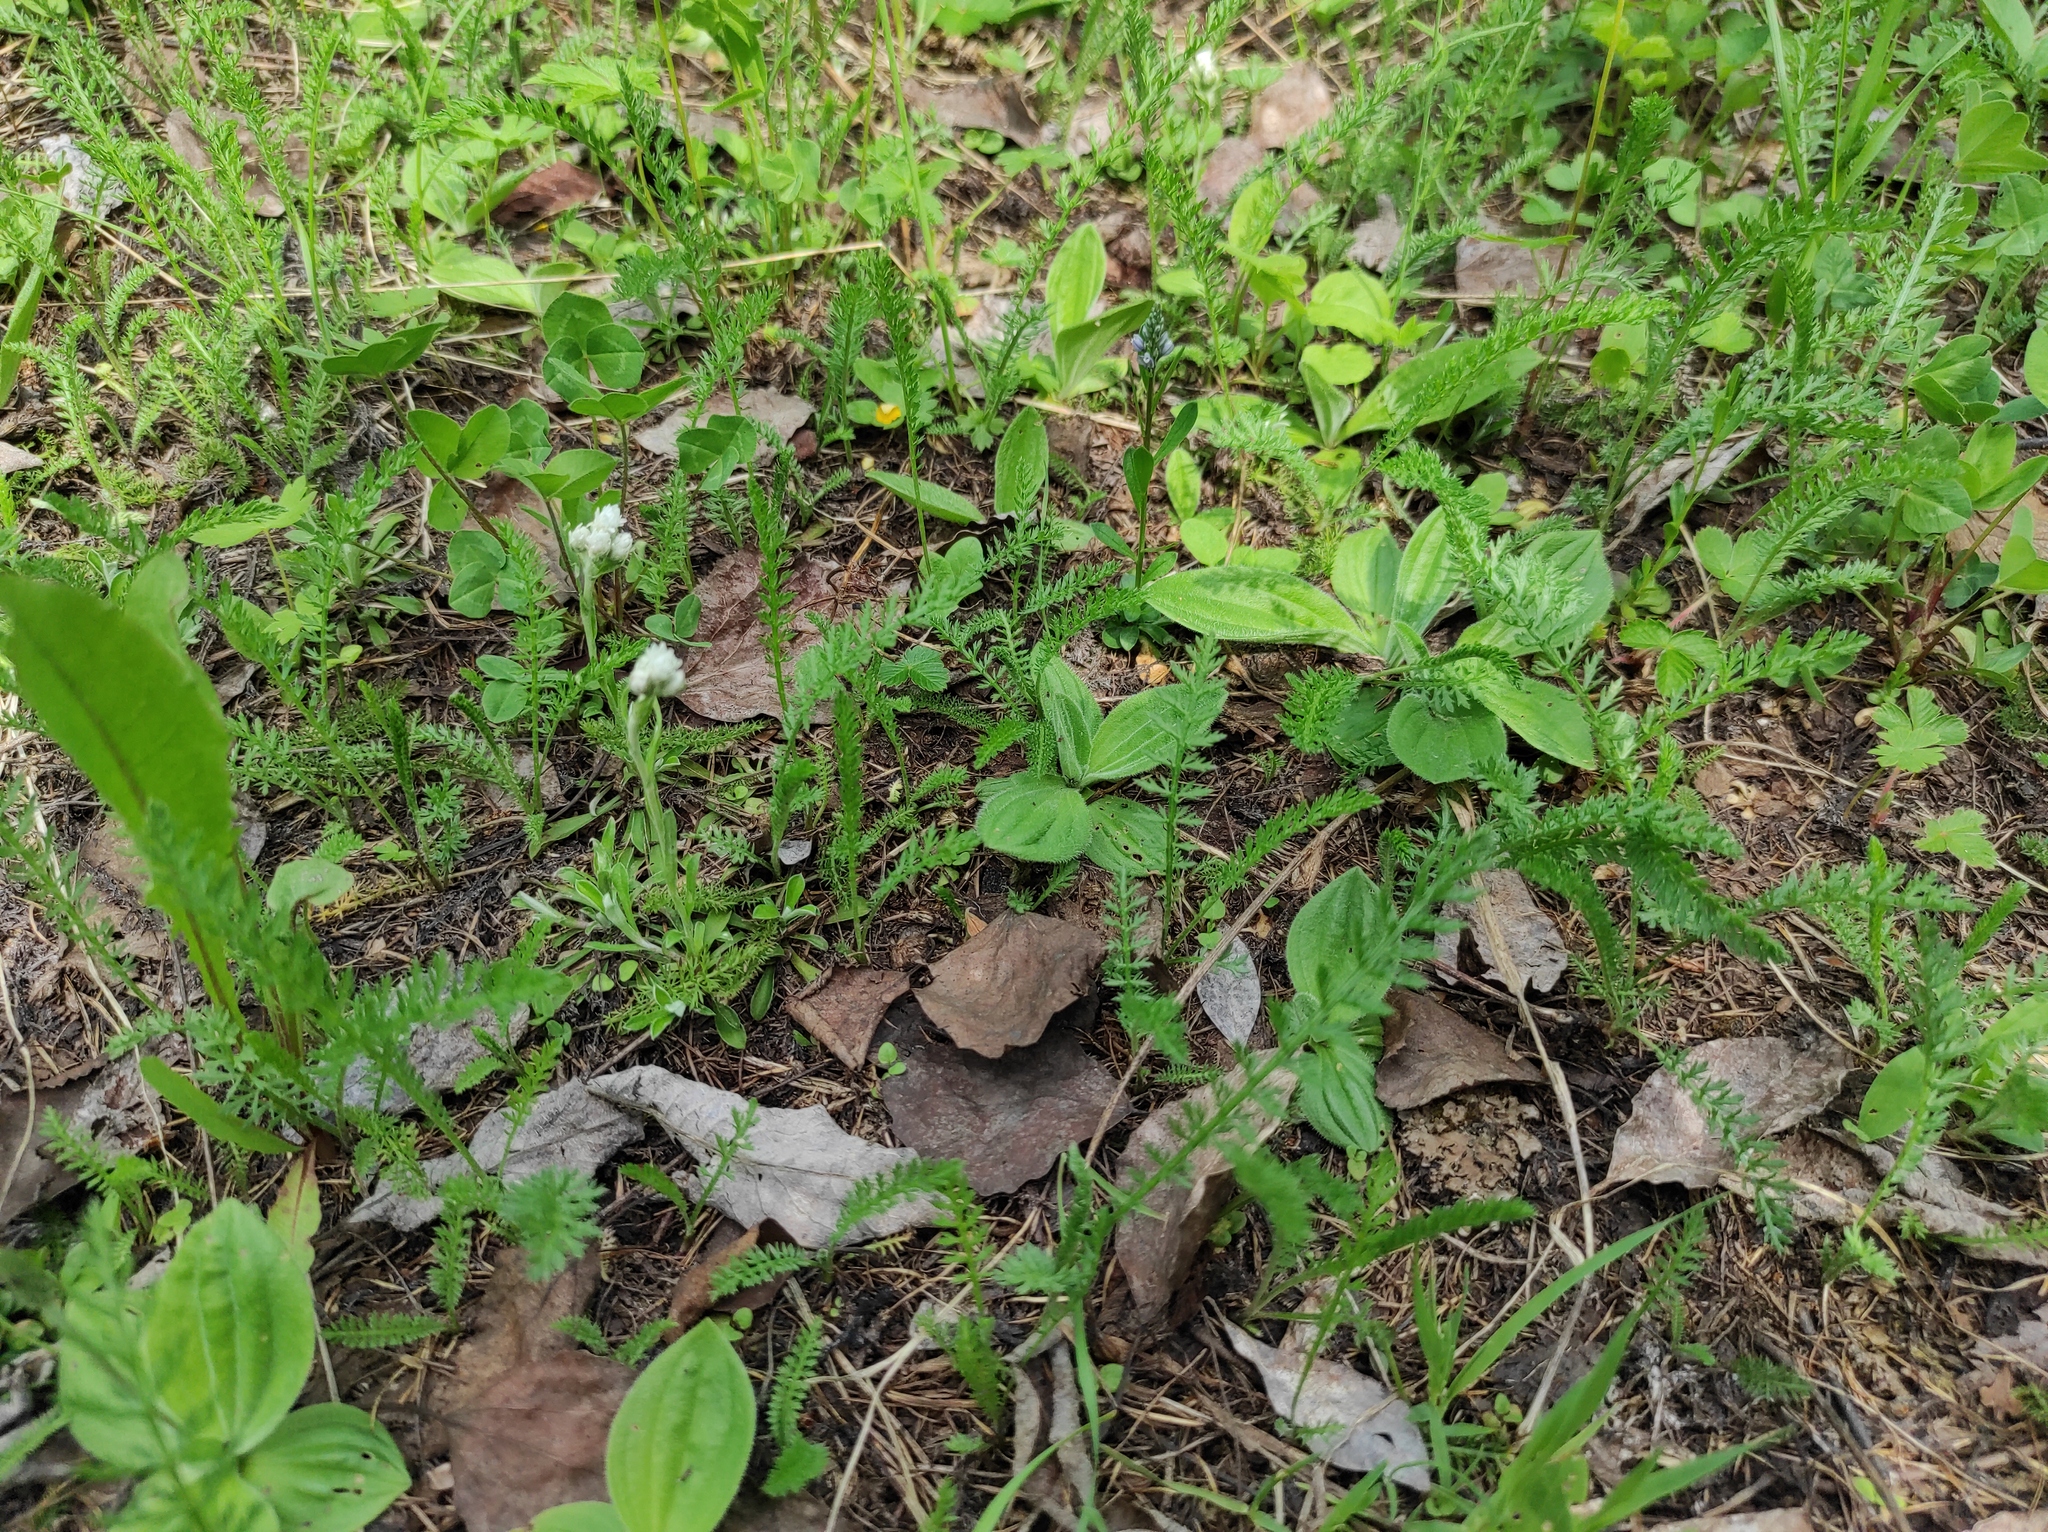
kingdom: Plantae
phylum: Tracheophyta
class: Magnoliopsida
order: Asterales
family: Asteraceae
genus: Antennaria
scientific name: Antennaria dioica
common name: Mountain everlasting
